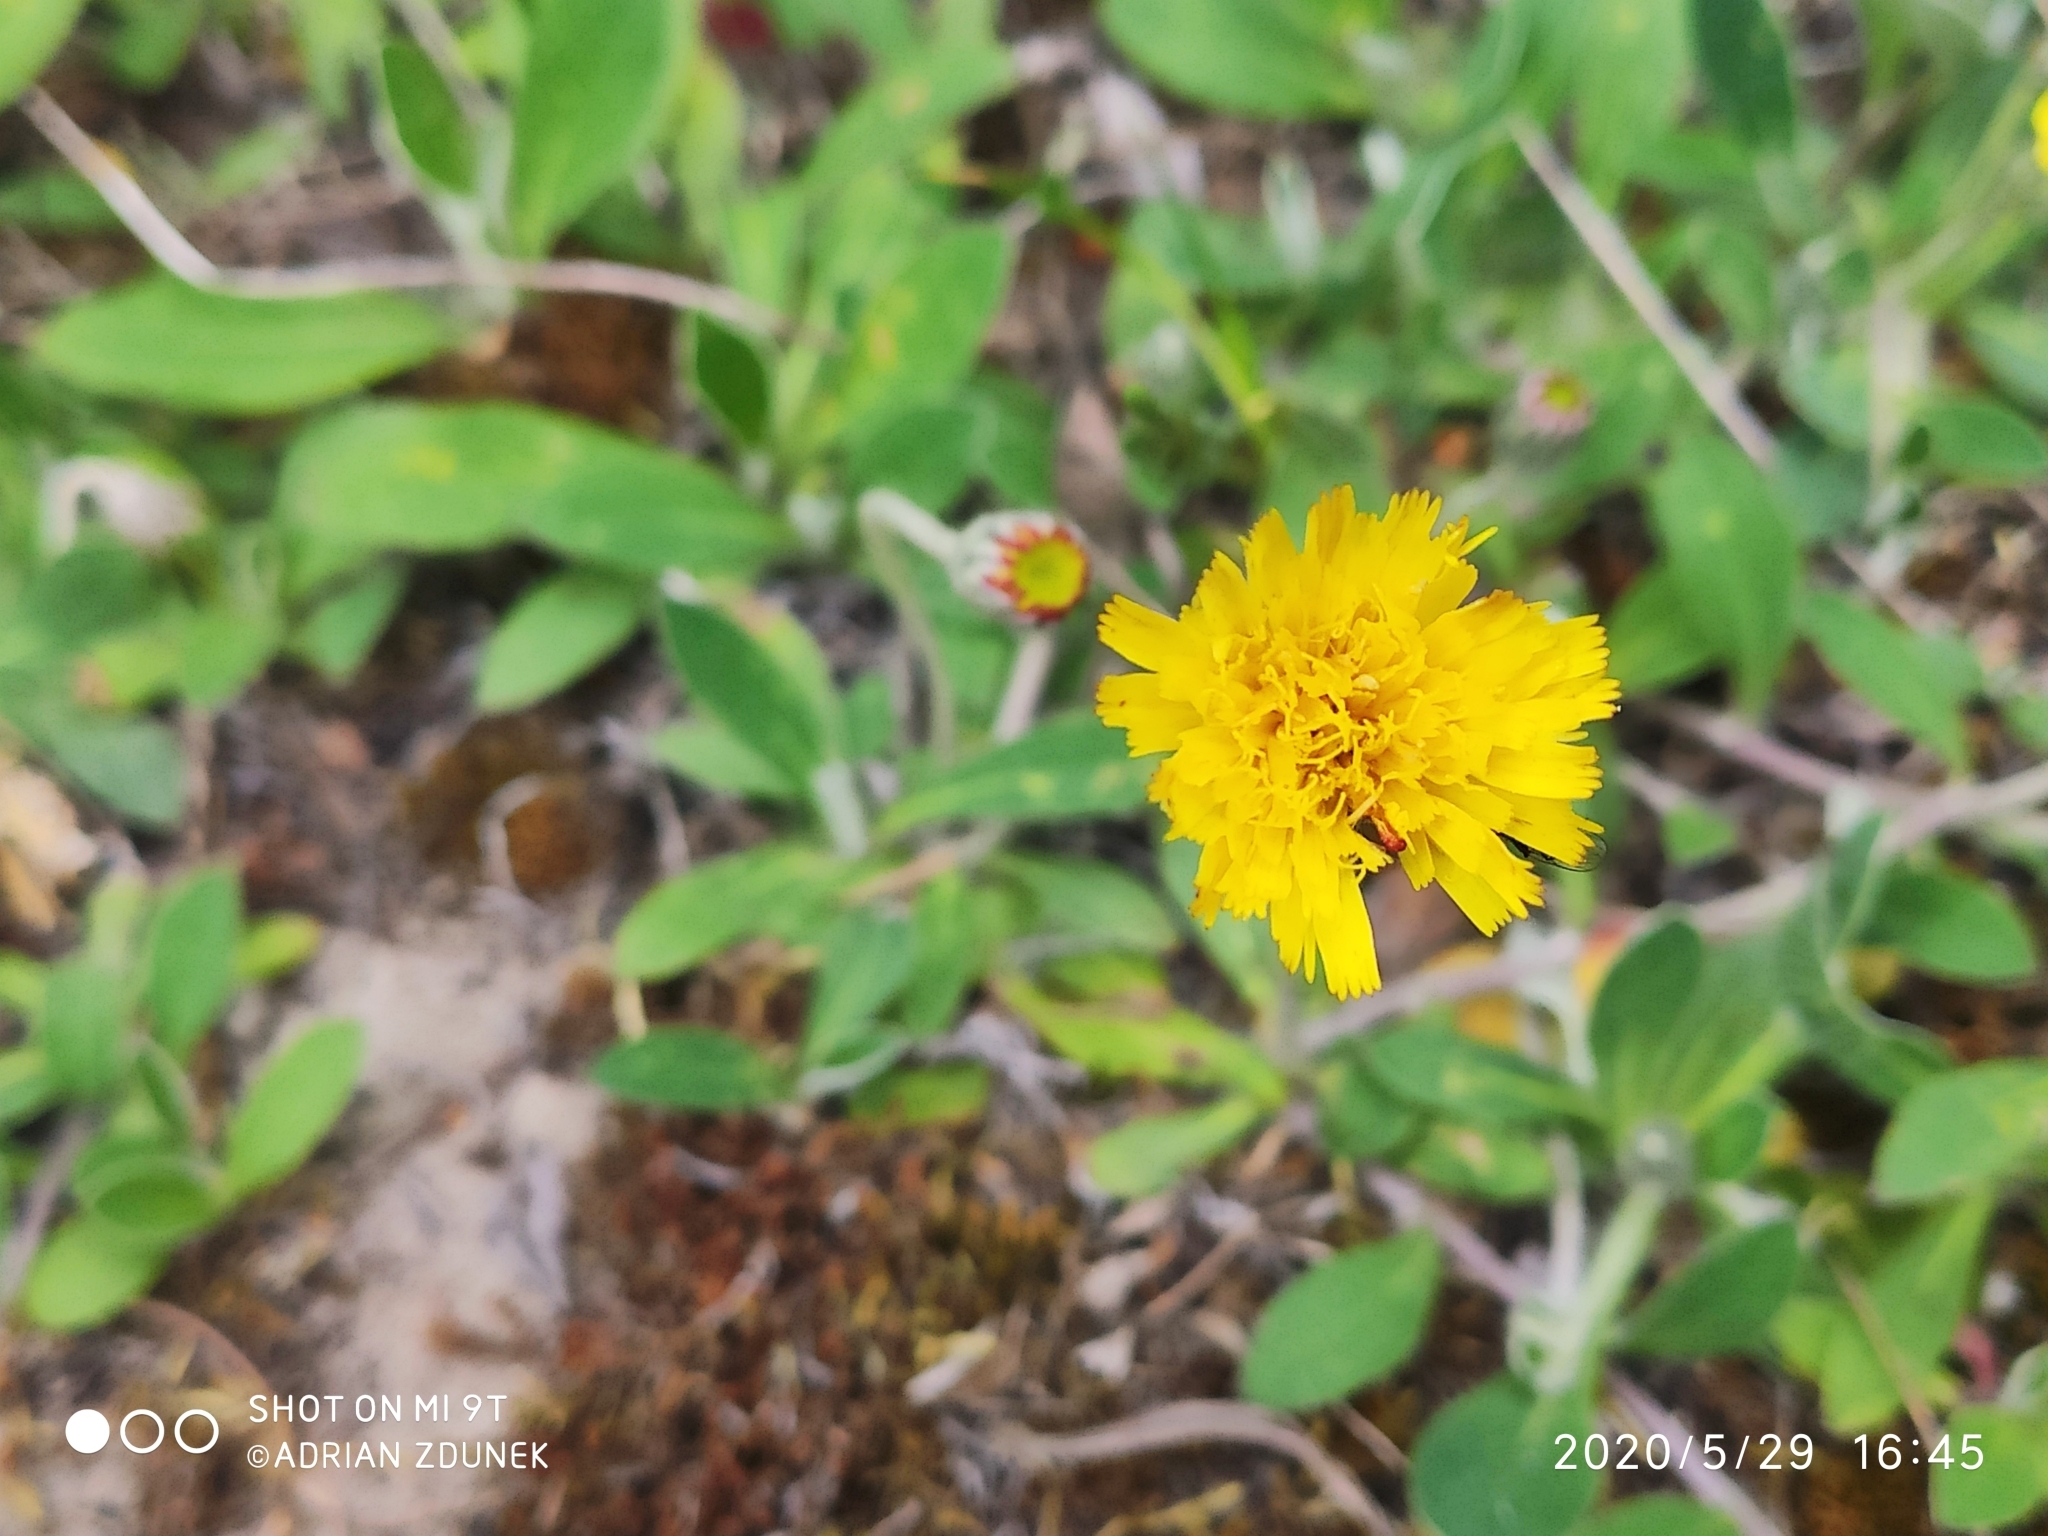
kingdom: Plantae
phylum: Tracheophyta
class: Magnoliopsida
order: Asterales
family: Asteraceae
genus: Pilosella
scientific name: Pilosella officinarum
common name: Mouse-ear hawkweed
